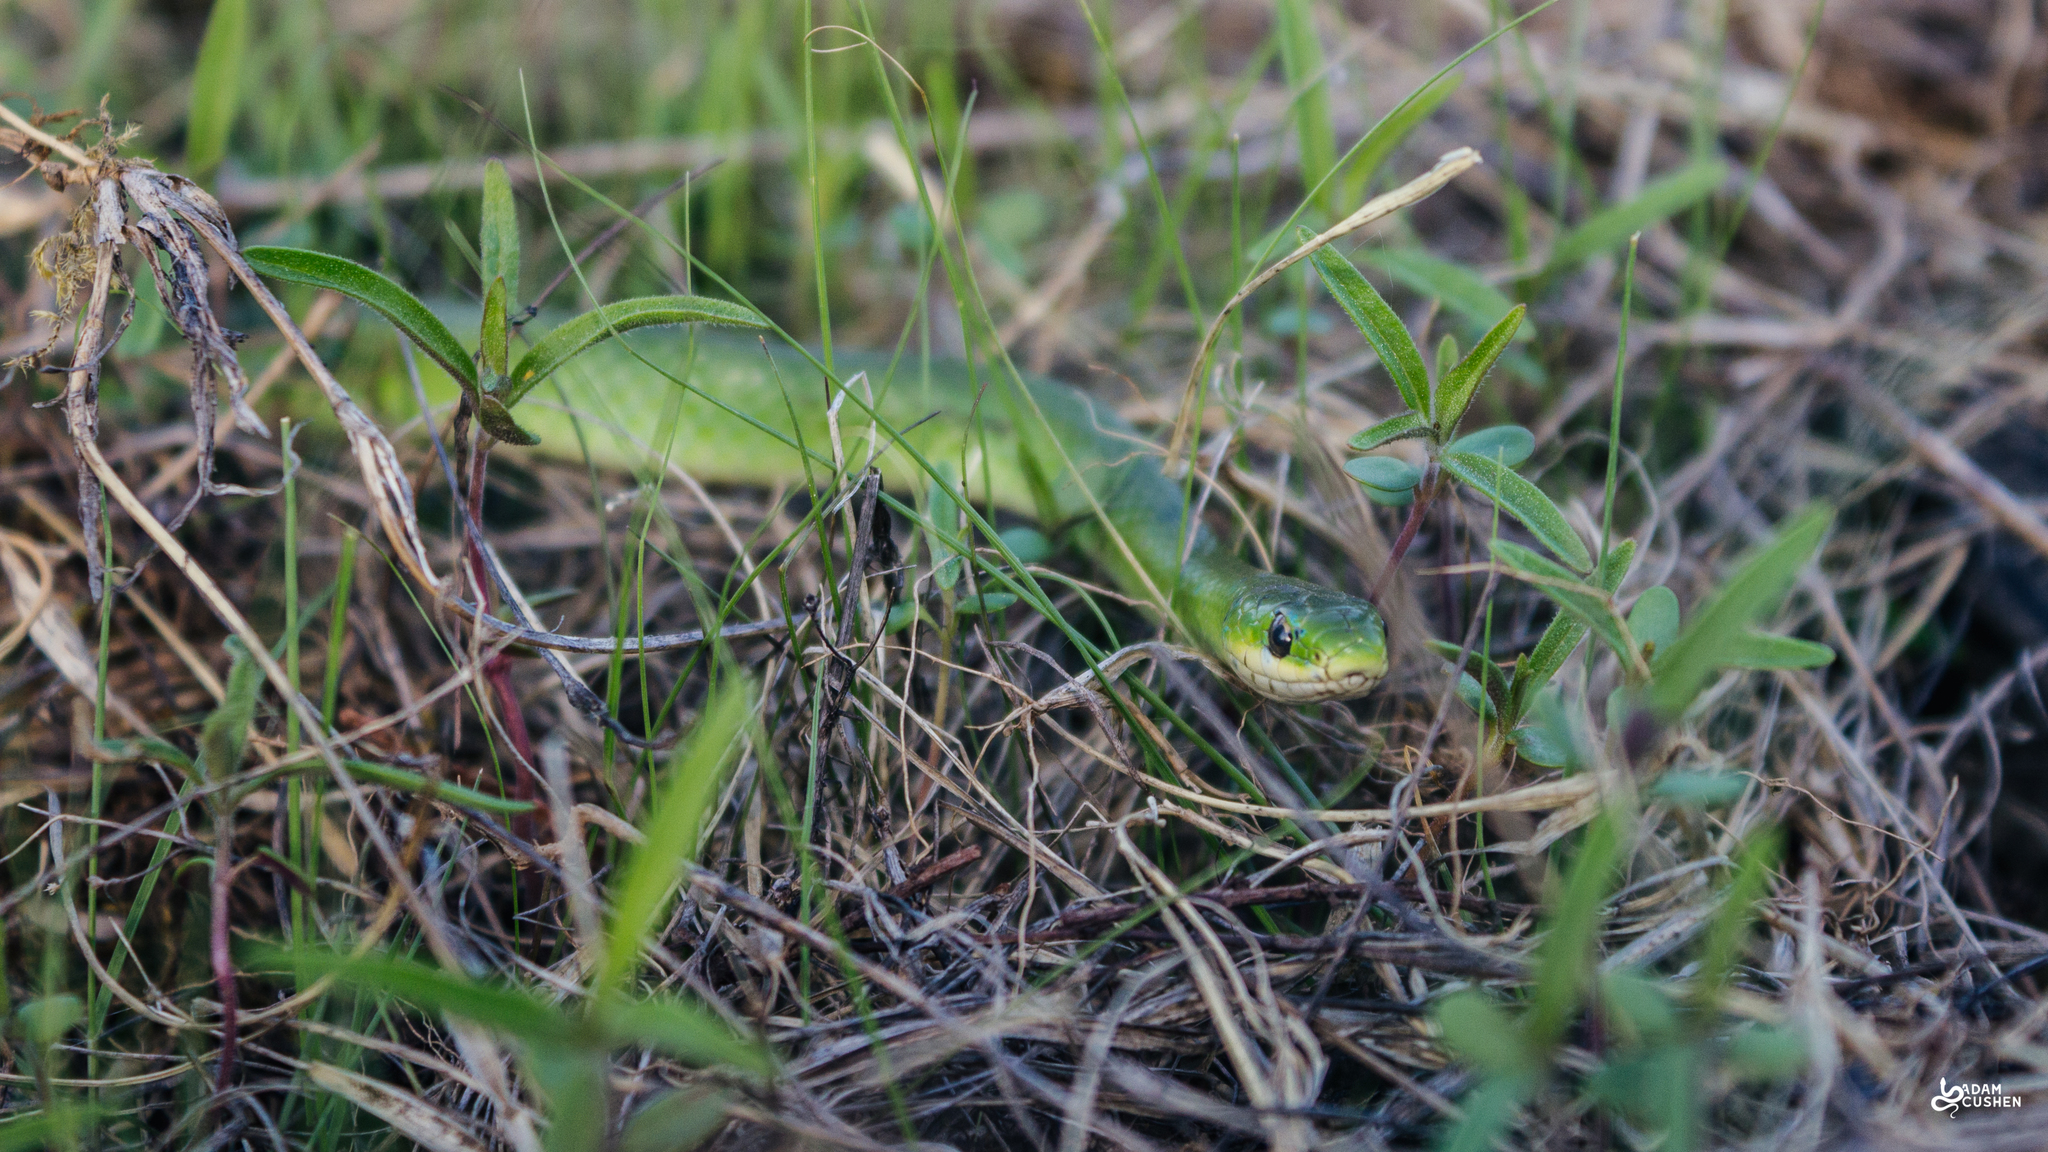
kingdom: Animalia
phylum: Chordata
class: Squamata
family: Colubridae
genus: Opheodrys
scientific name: Opheodrys vernalis
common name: Smooth green snake
